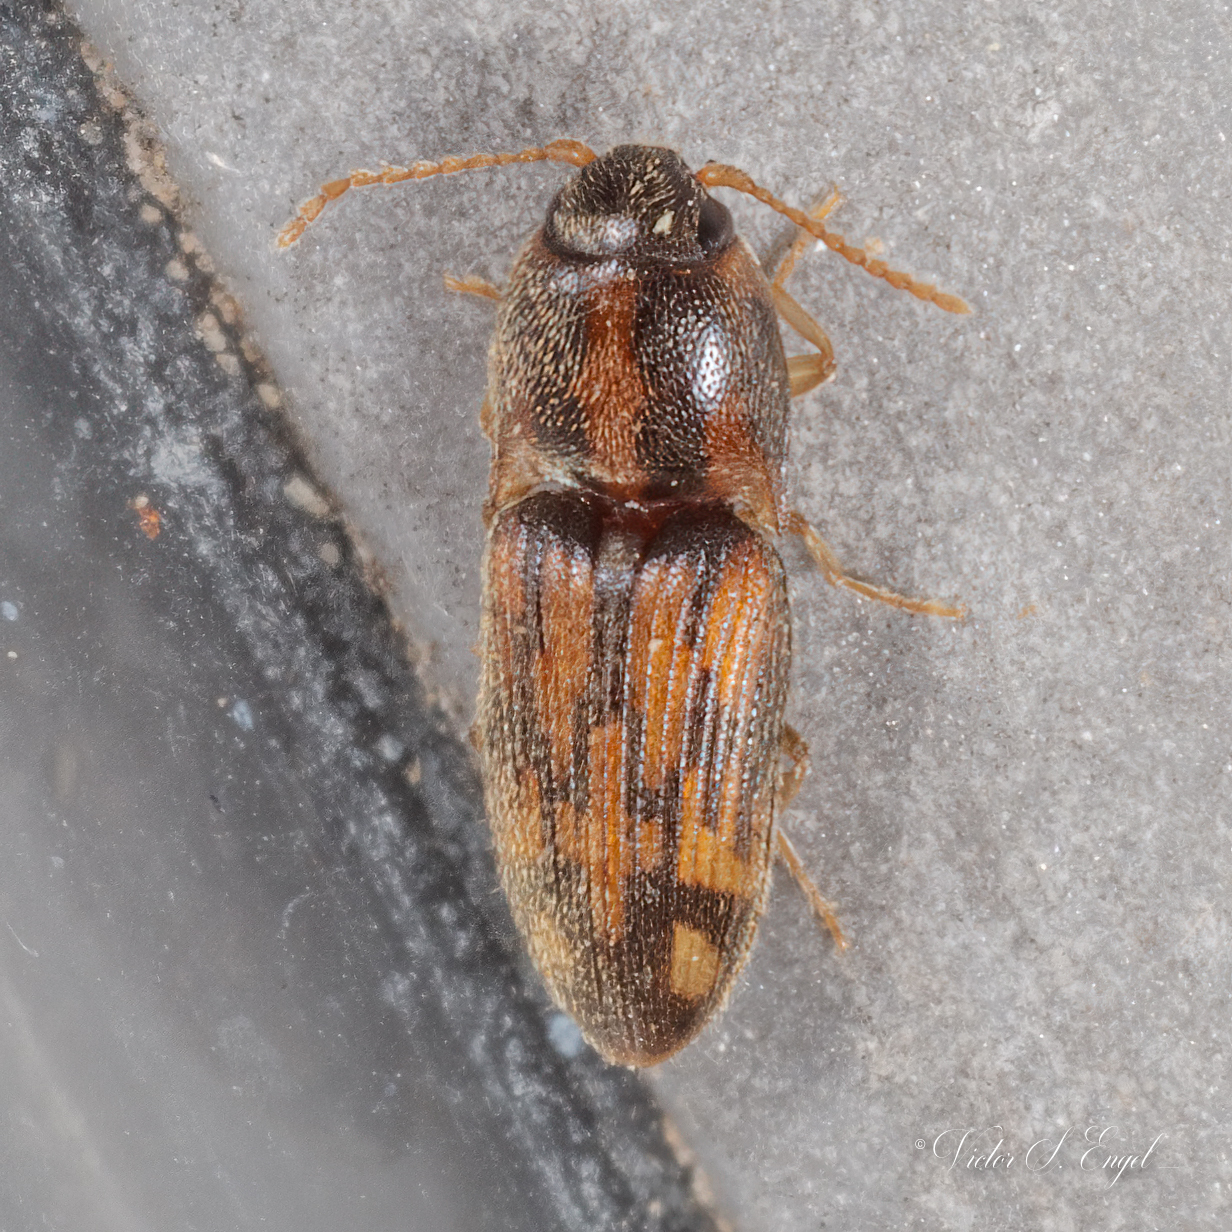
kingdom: Animalia
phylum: Arthropoda
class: Insecta
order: Coleoptera
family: Elateridae
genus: Monocrepidius
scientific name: Monocrepidius bellus
